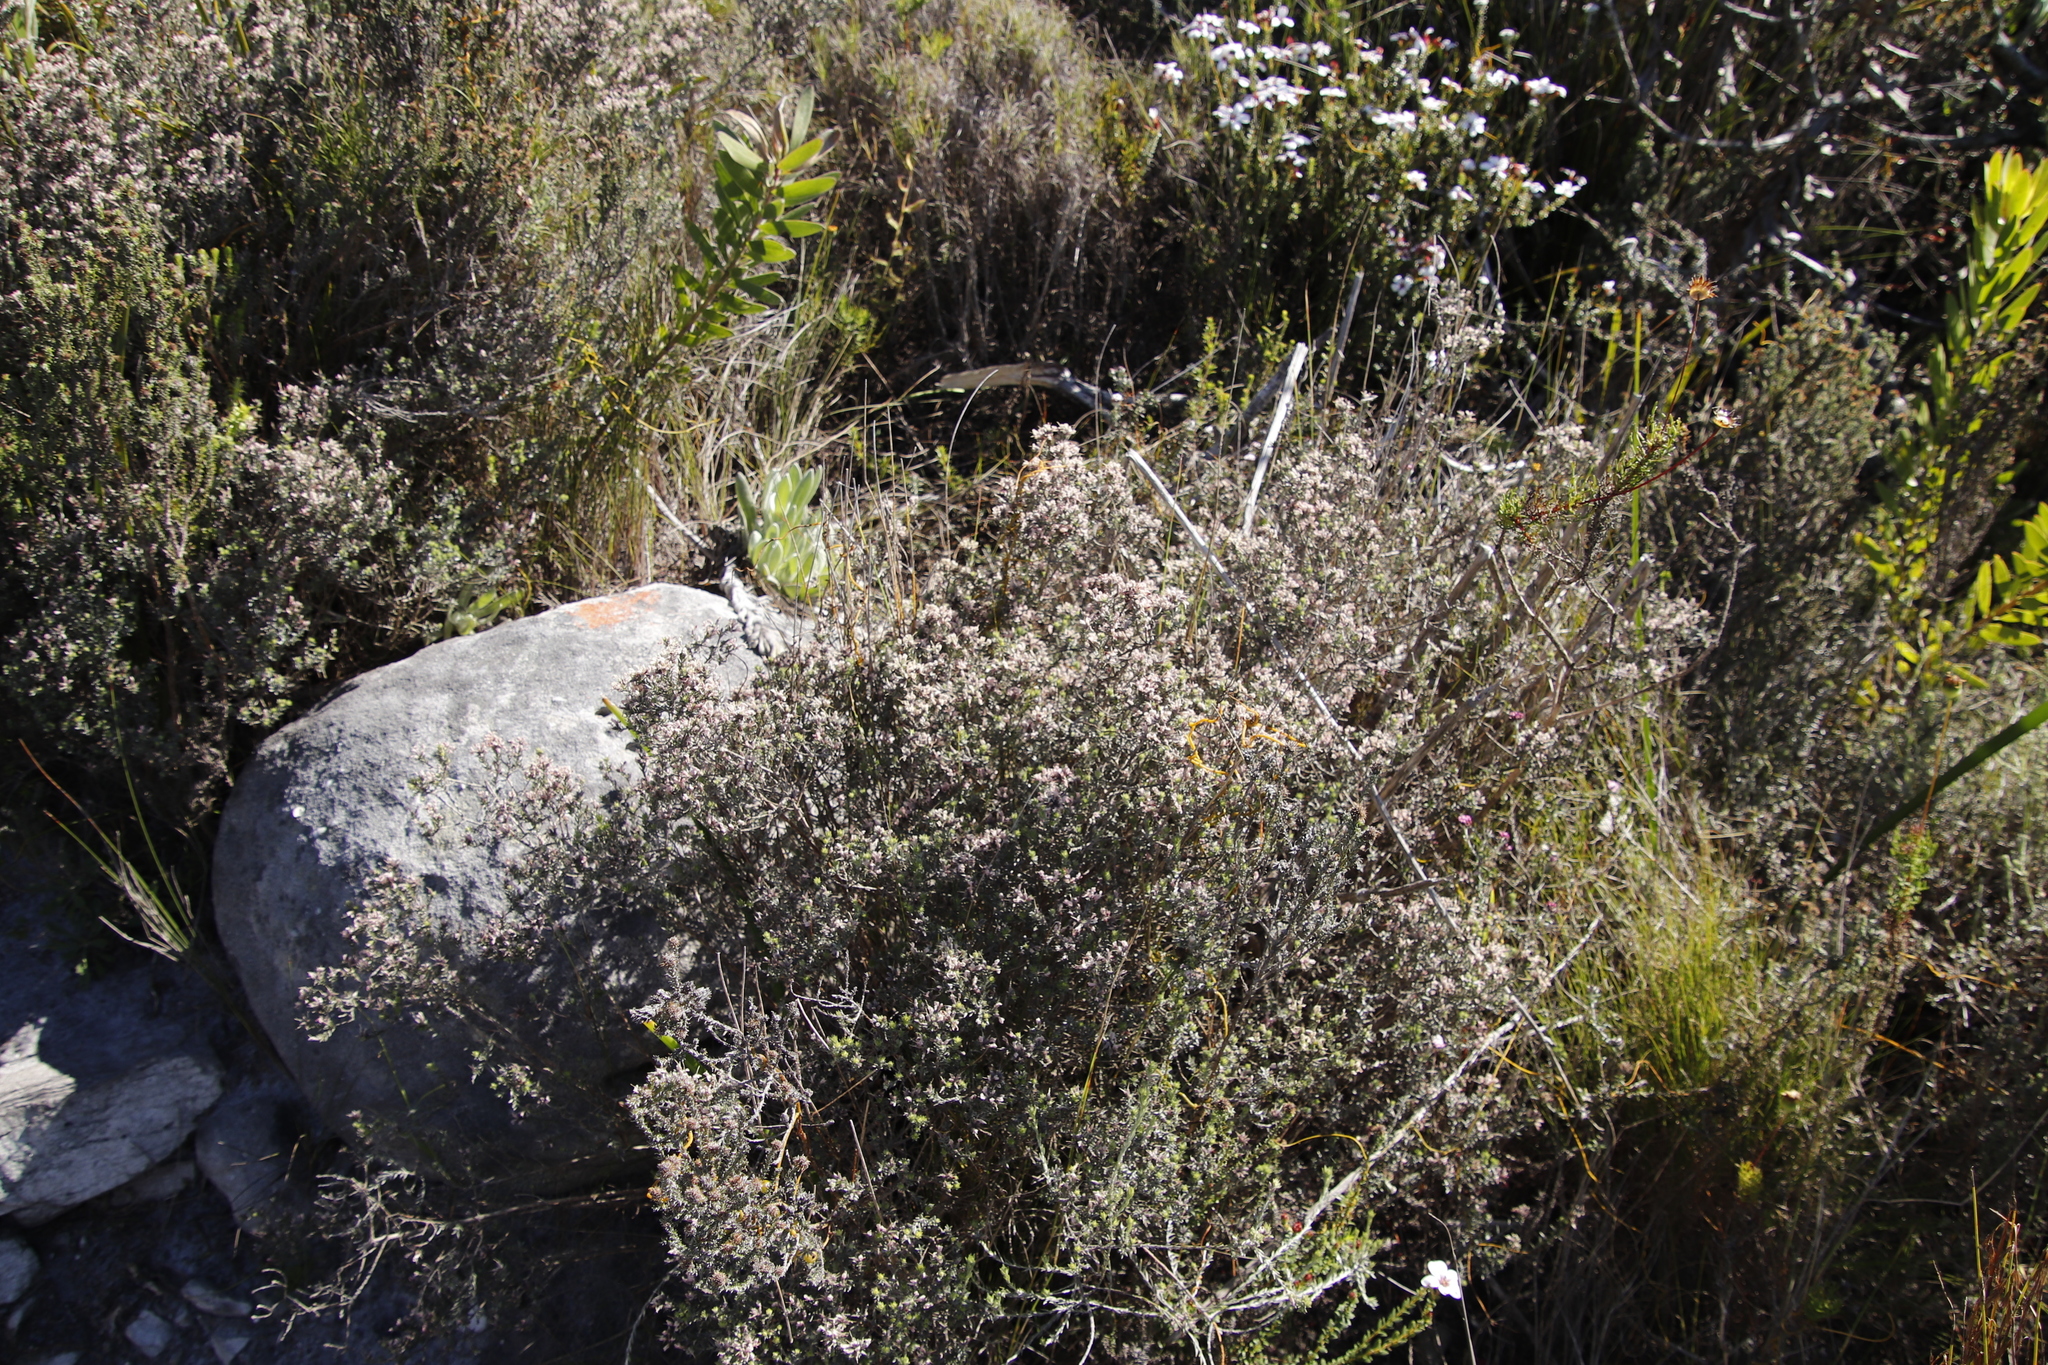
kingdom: Plantae
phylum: Tracheophyta
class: Magnoliopsida
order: Fabales
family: Fabaceae
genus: Amphithalea
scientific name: Amphithalea ericifolia
